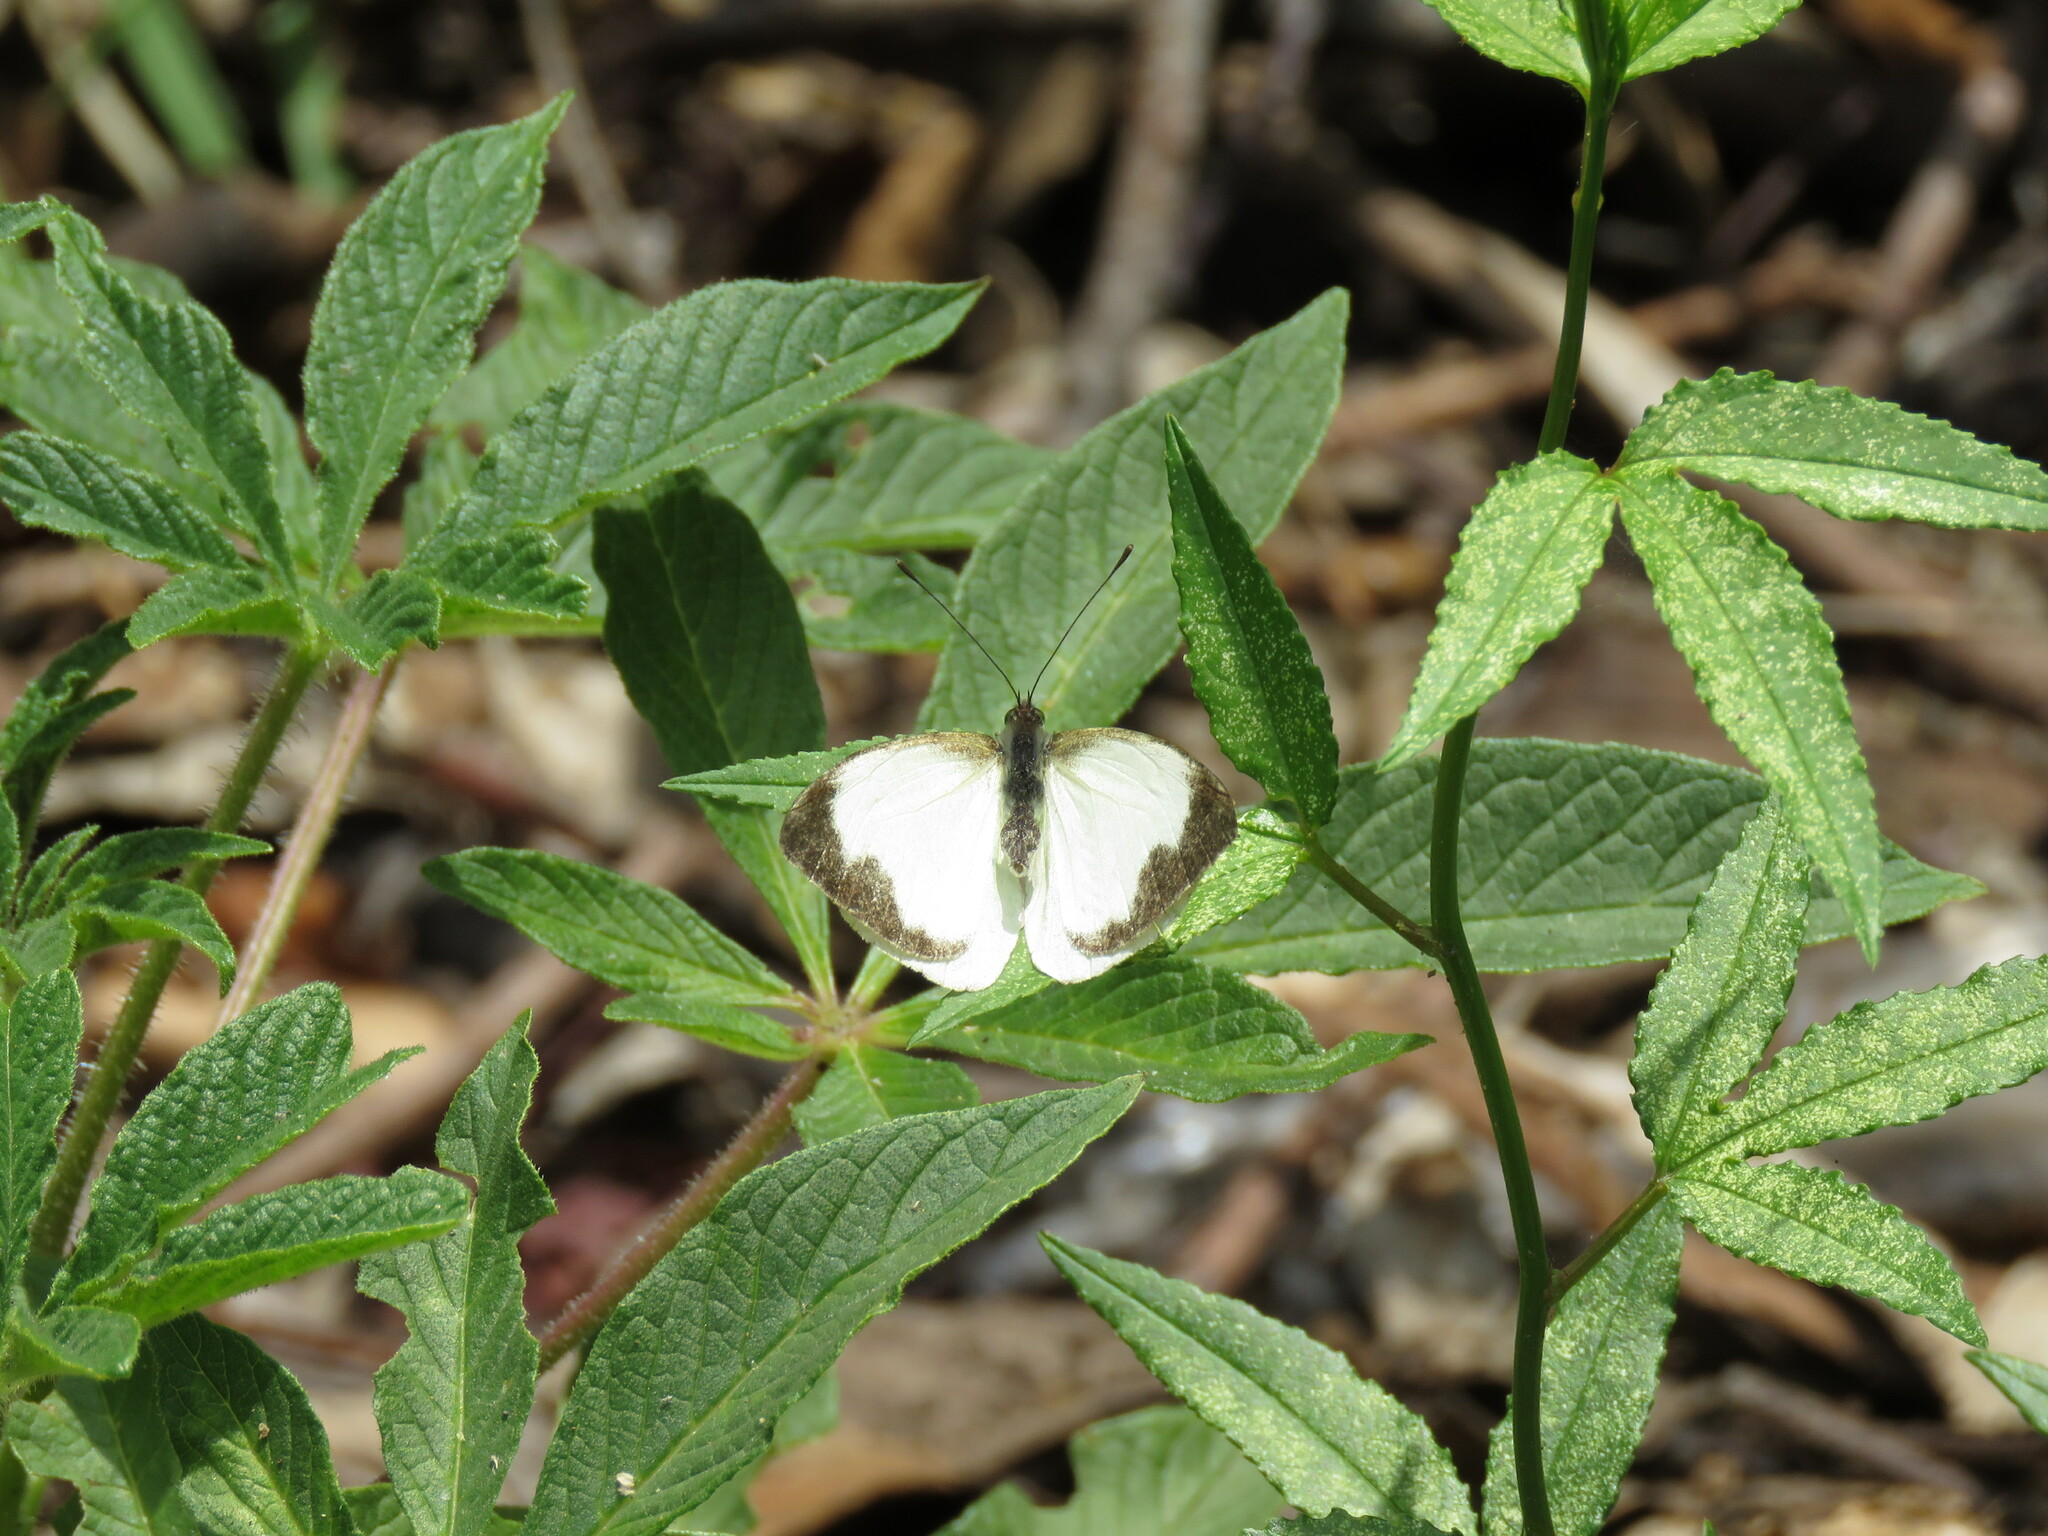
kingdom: Animalia
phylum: Arthropoda
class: Insecta
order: Lepidoptera
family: Pieridae
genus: Leptophobia
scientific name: Leptophobia aripa
